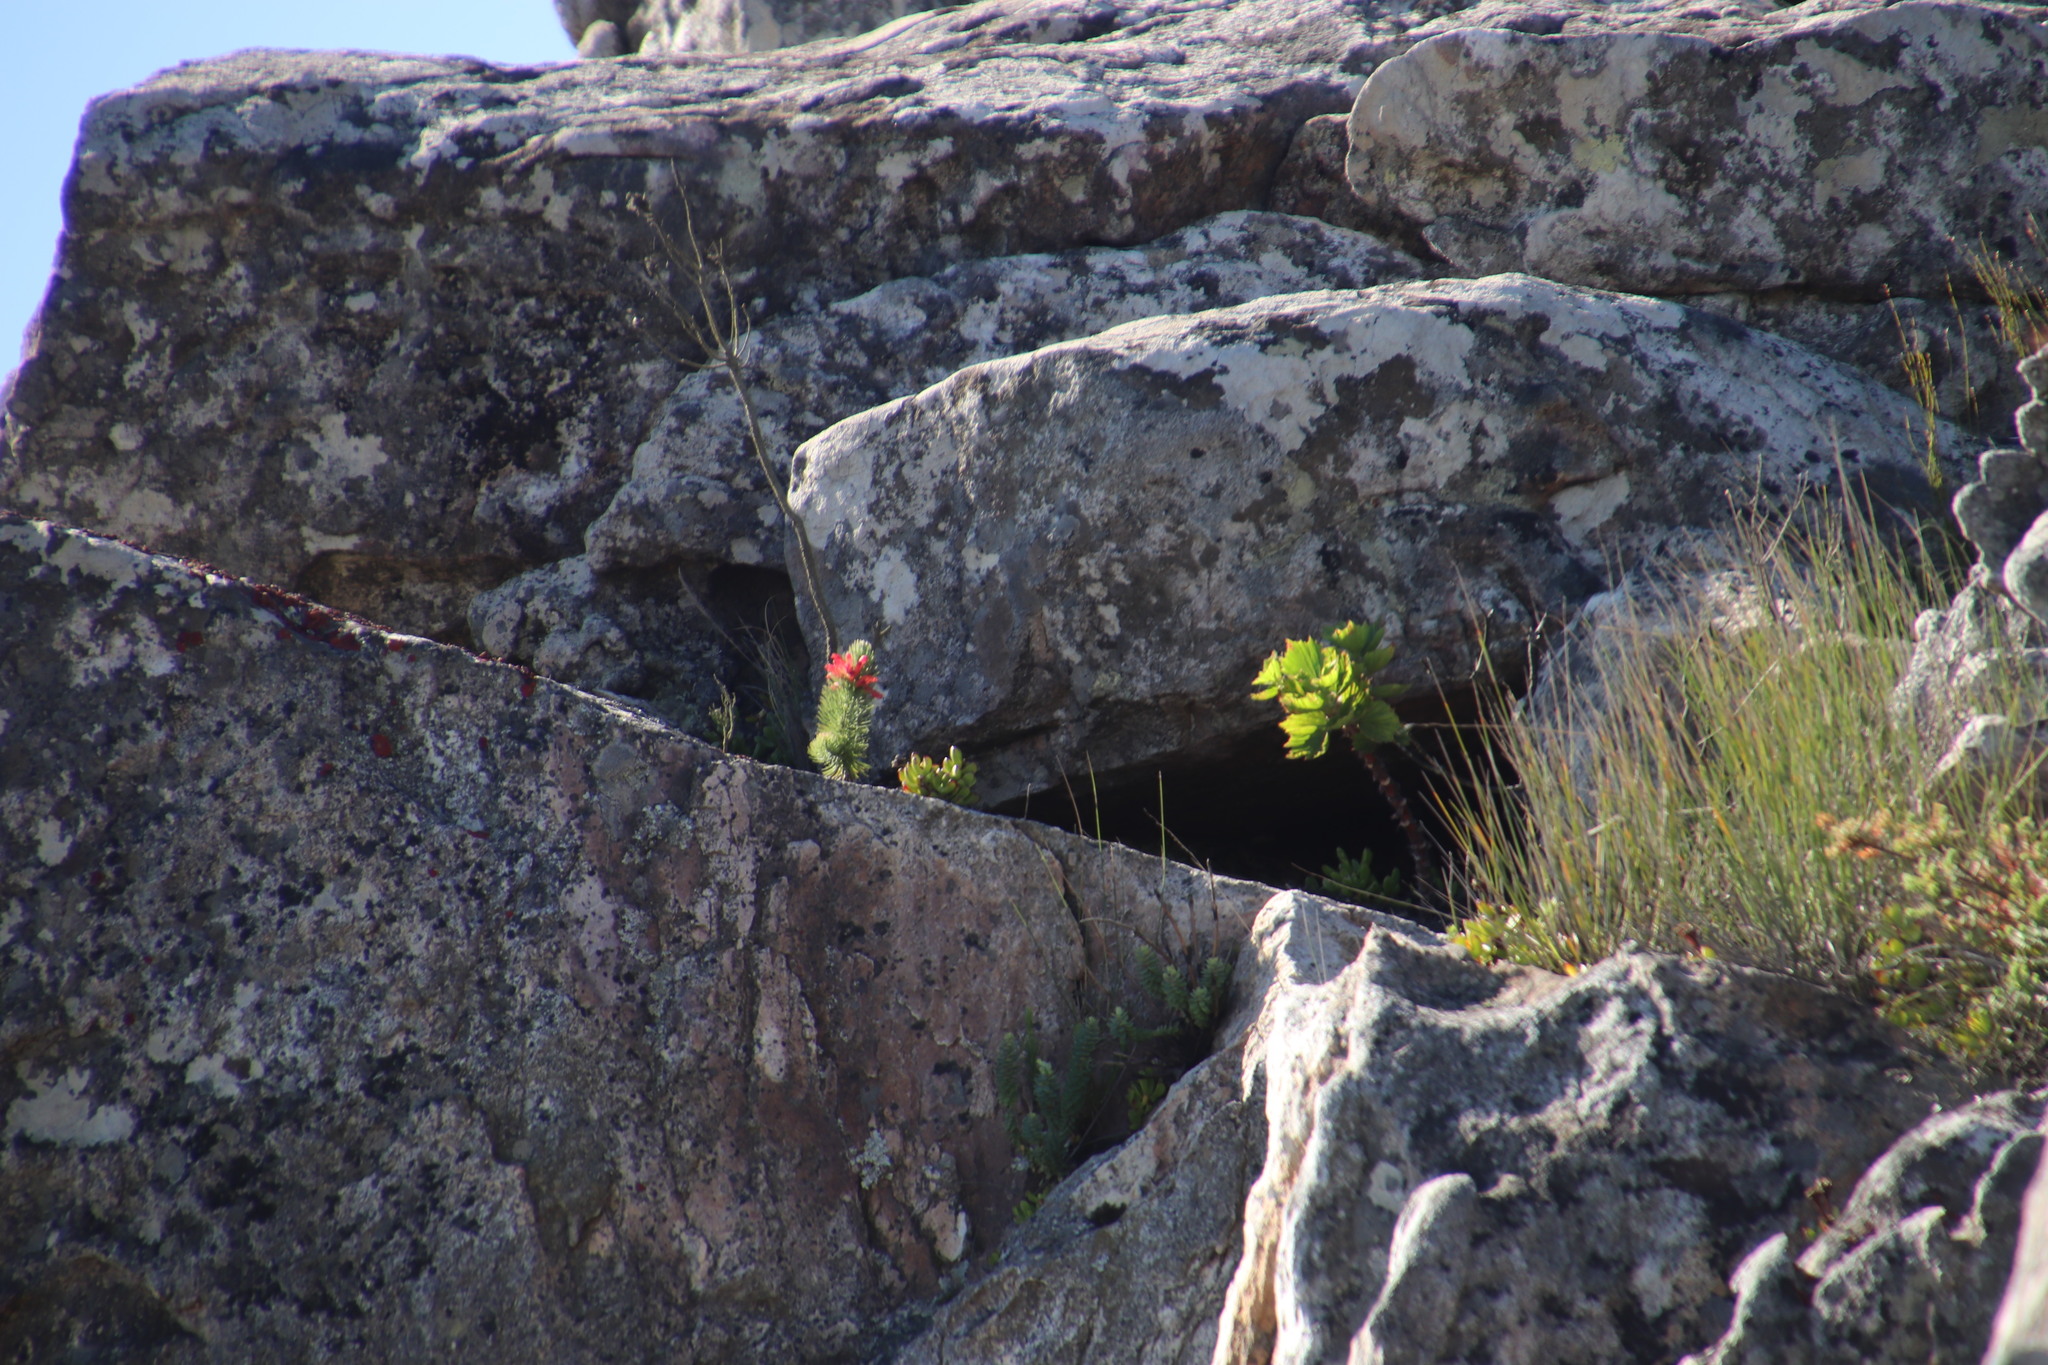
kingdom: Plantae
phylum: Tracheophyta
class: Magnoliopsida
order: Ericales
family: Ericaceae
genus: Erica
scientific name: Erica viscaria
